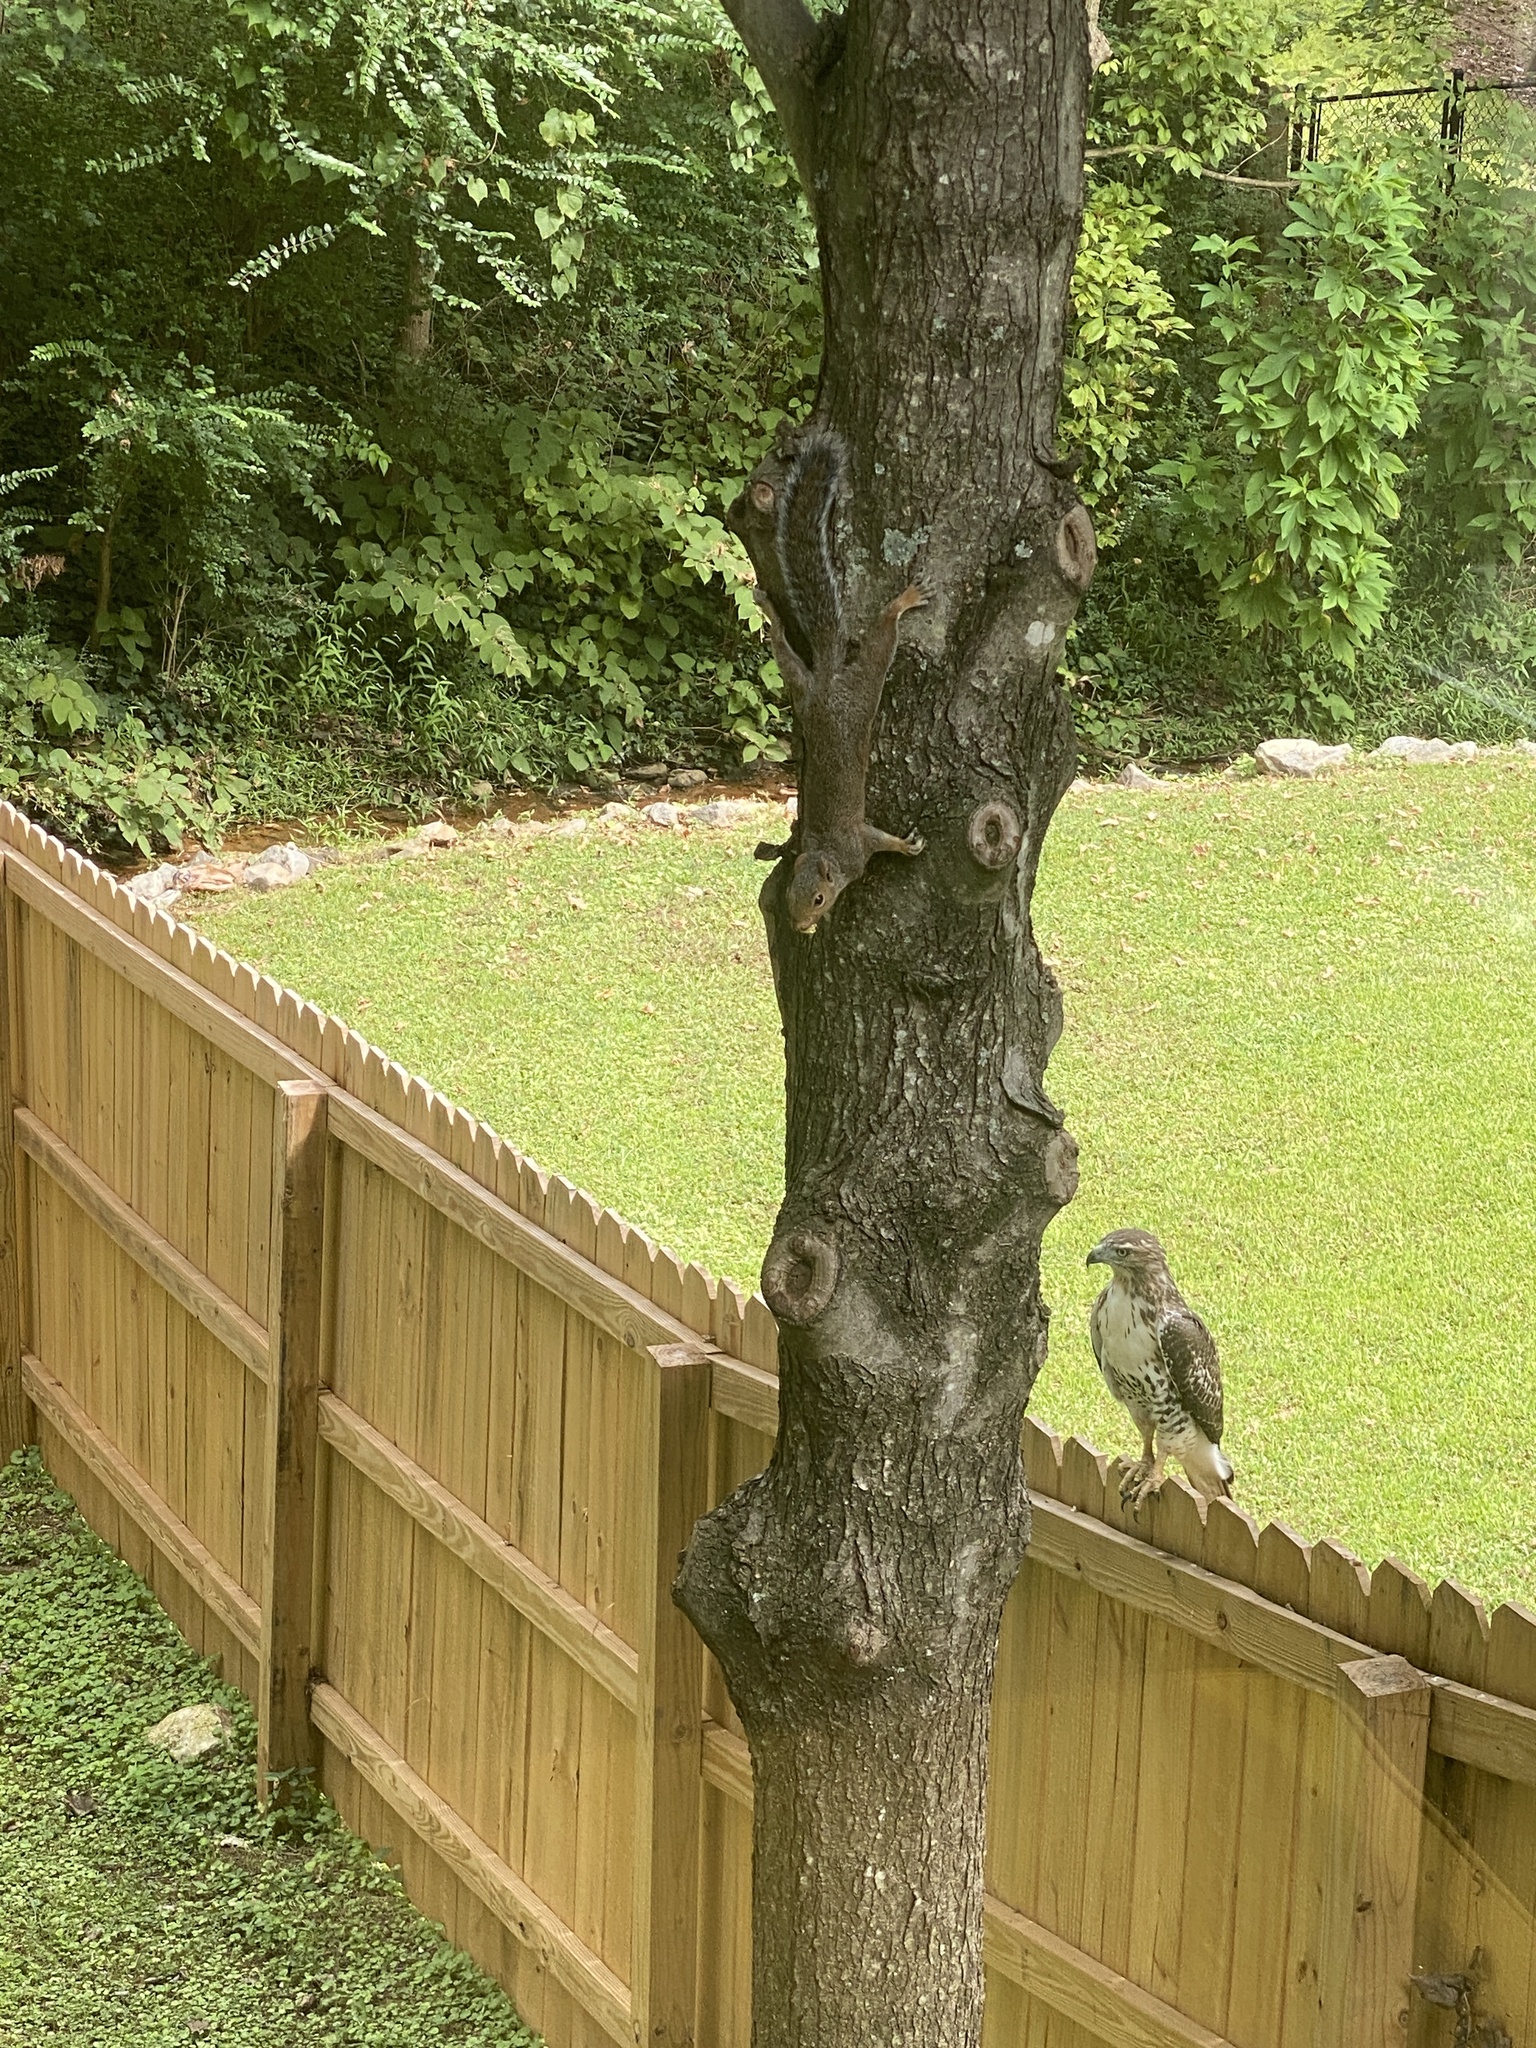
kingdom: Animalia
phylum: Chordata
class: Aves
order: Accipitriformes
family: Accipitridae
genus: Buteo
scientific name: Buteo jamaicensis
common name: Red-tailed hawk
